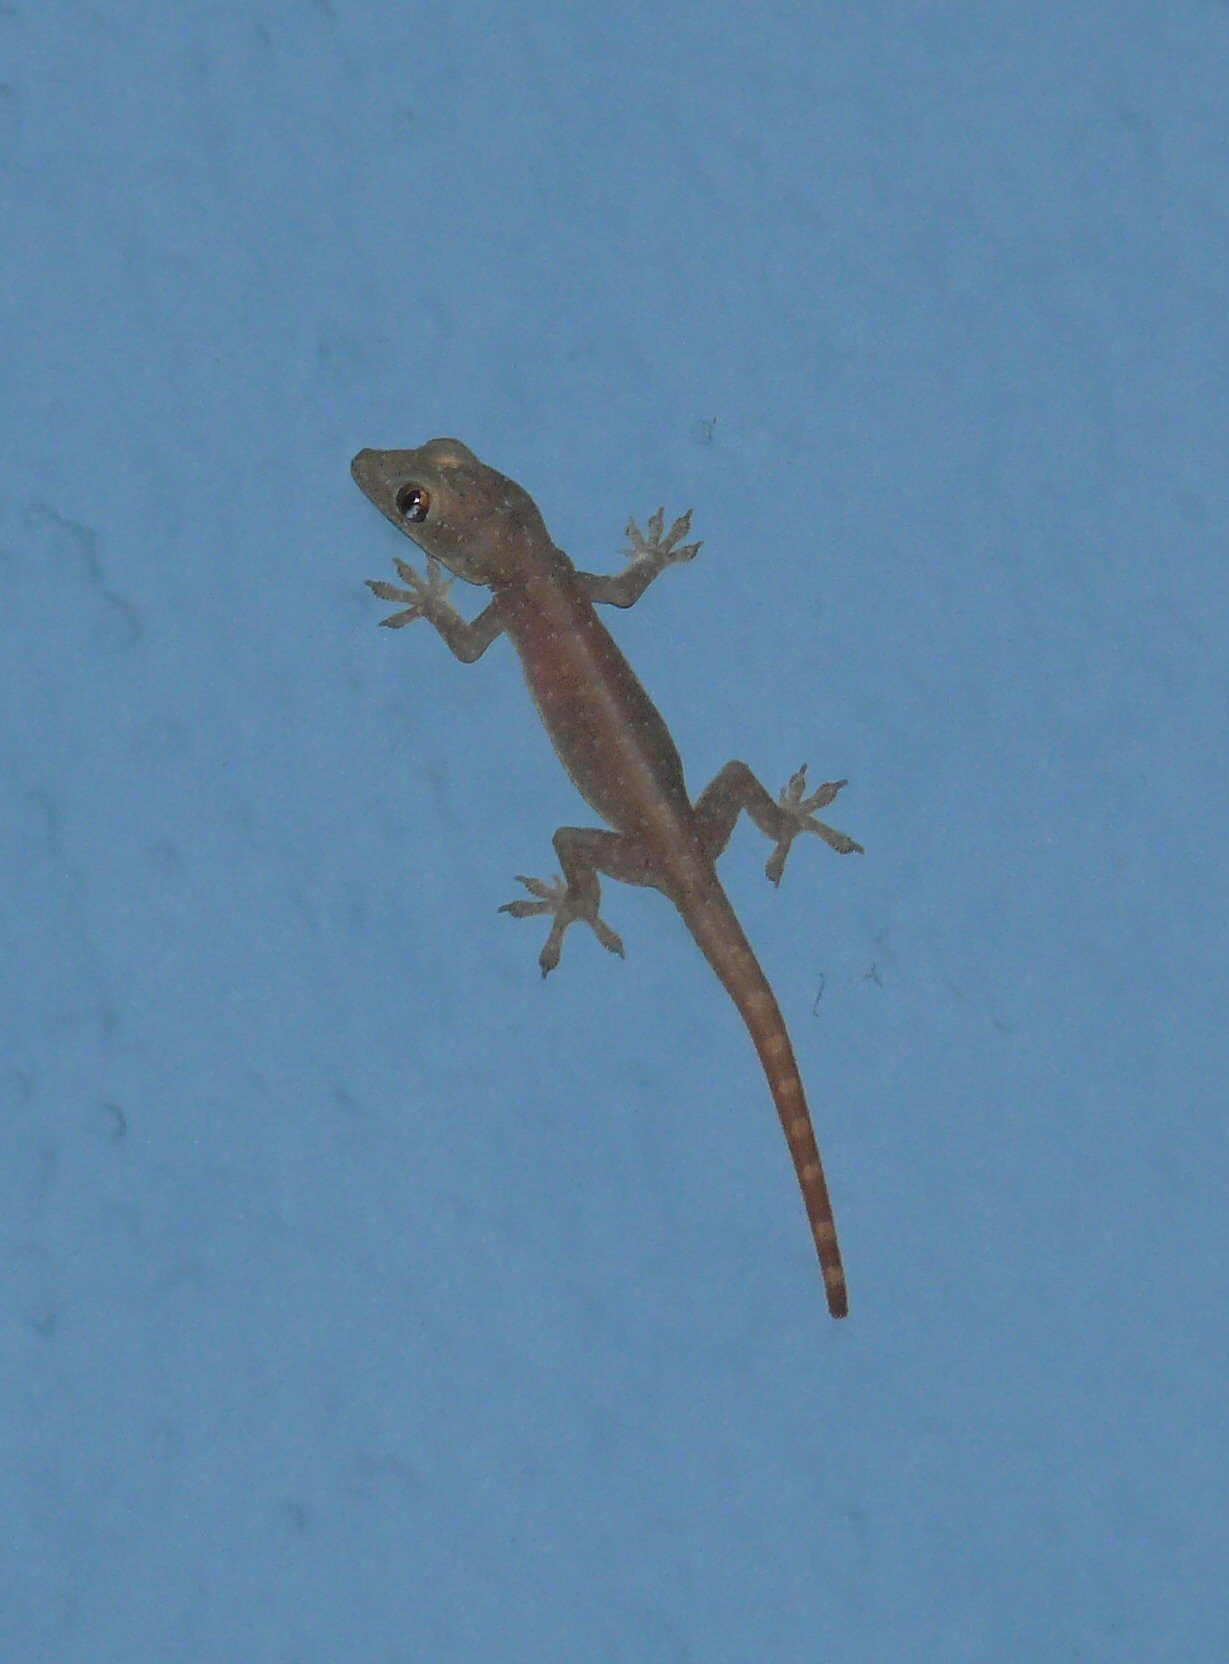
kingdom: Animalia
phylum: Chordata
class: Squamata
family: Gekkonidae
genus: Hemidactylus
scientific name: Hemidactylus garnotii
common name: Indo-pacific gecko
